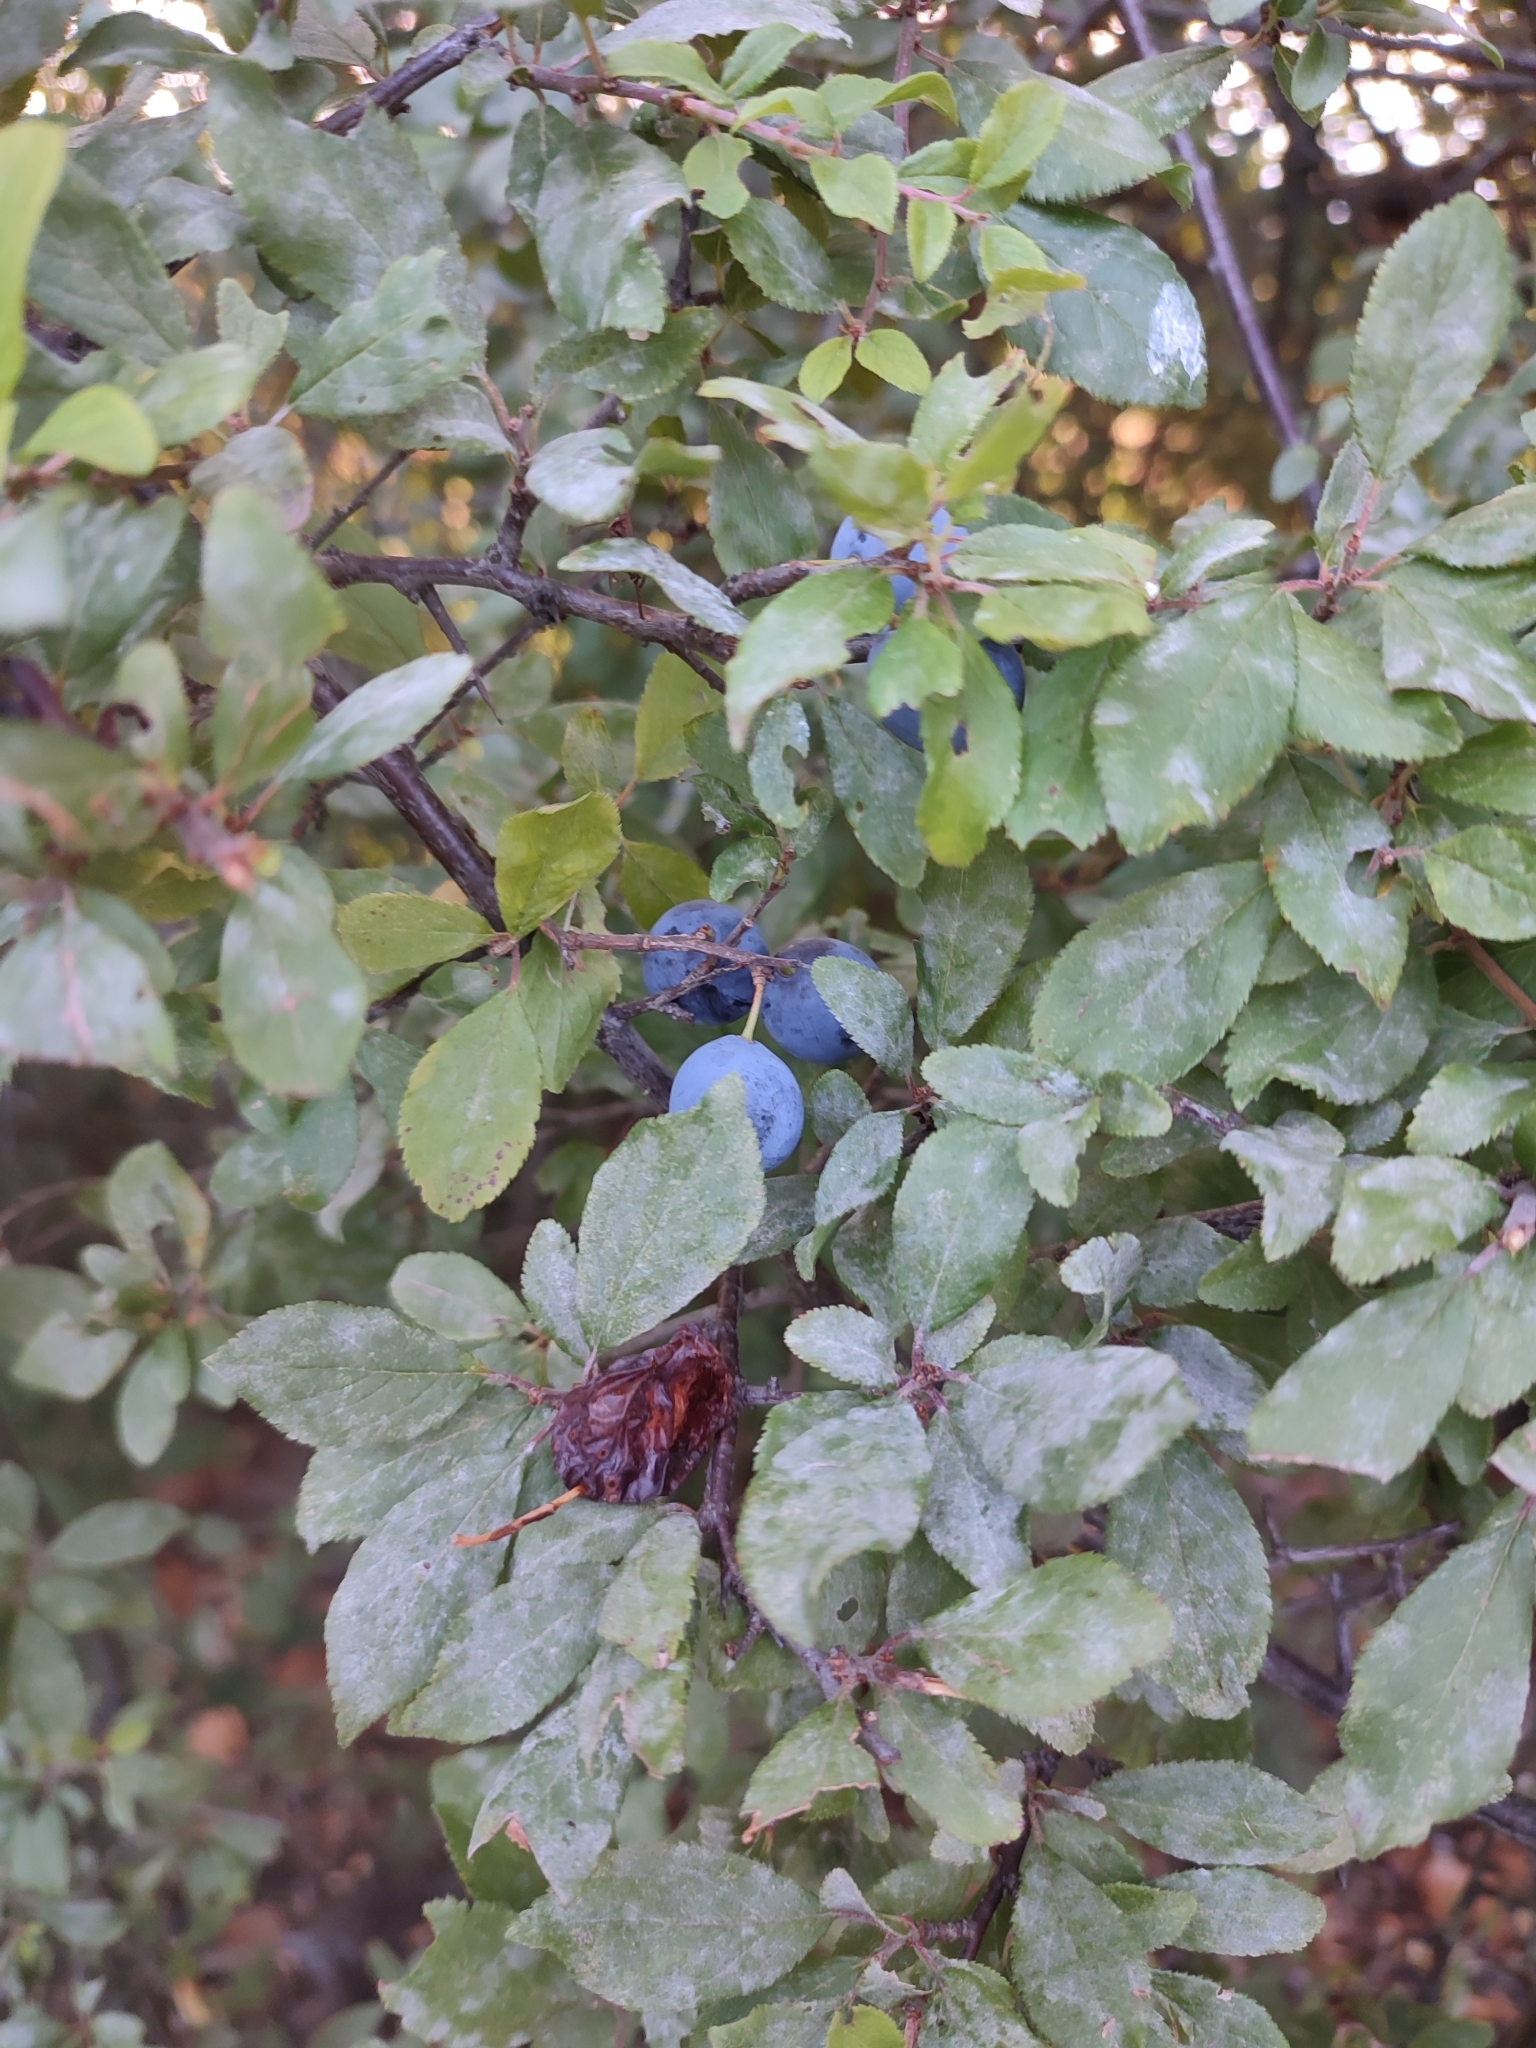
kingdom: Plantae
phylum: Tracheophyta
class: Magnoliopsida
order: Rosales
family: Rosaceae
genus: Prunus
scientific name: Prunus spinosa
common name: Blackthorn
